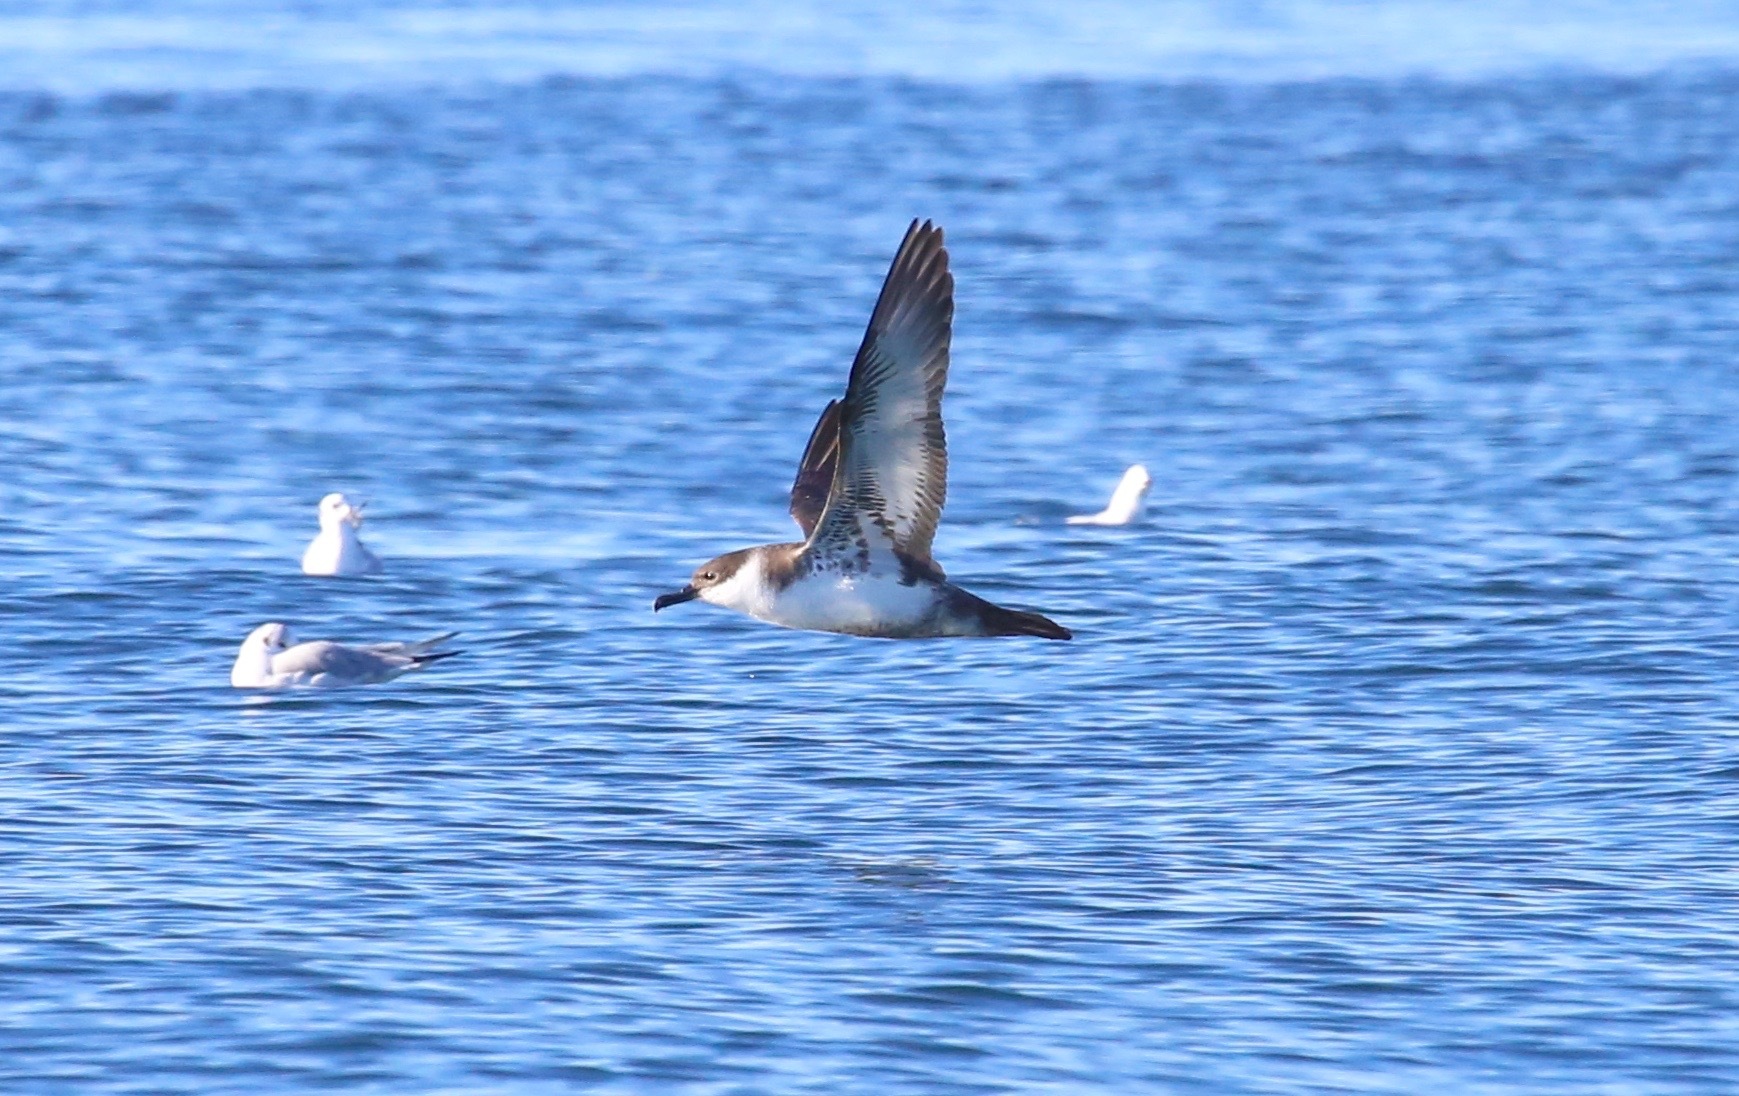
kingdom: Animalia
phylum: Chordata
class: Aves
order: Procellariiformes
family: Procellariidae
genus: Puffinus
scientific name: Puffinus gravis
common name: Great shearwater
